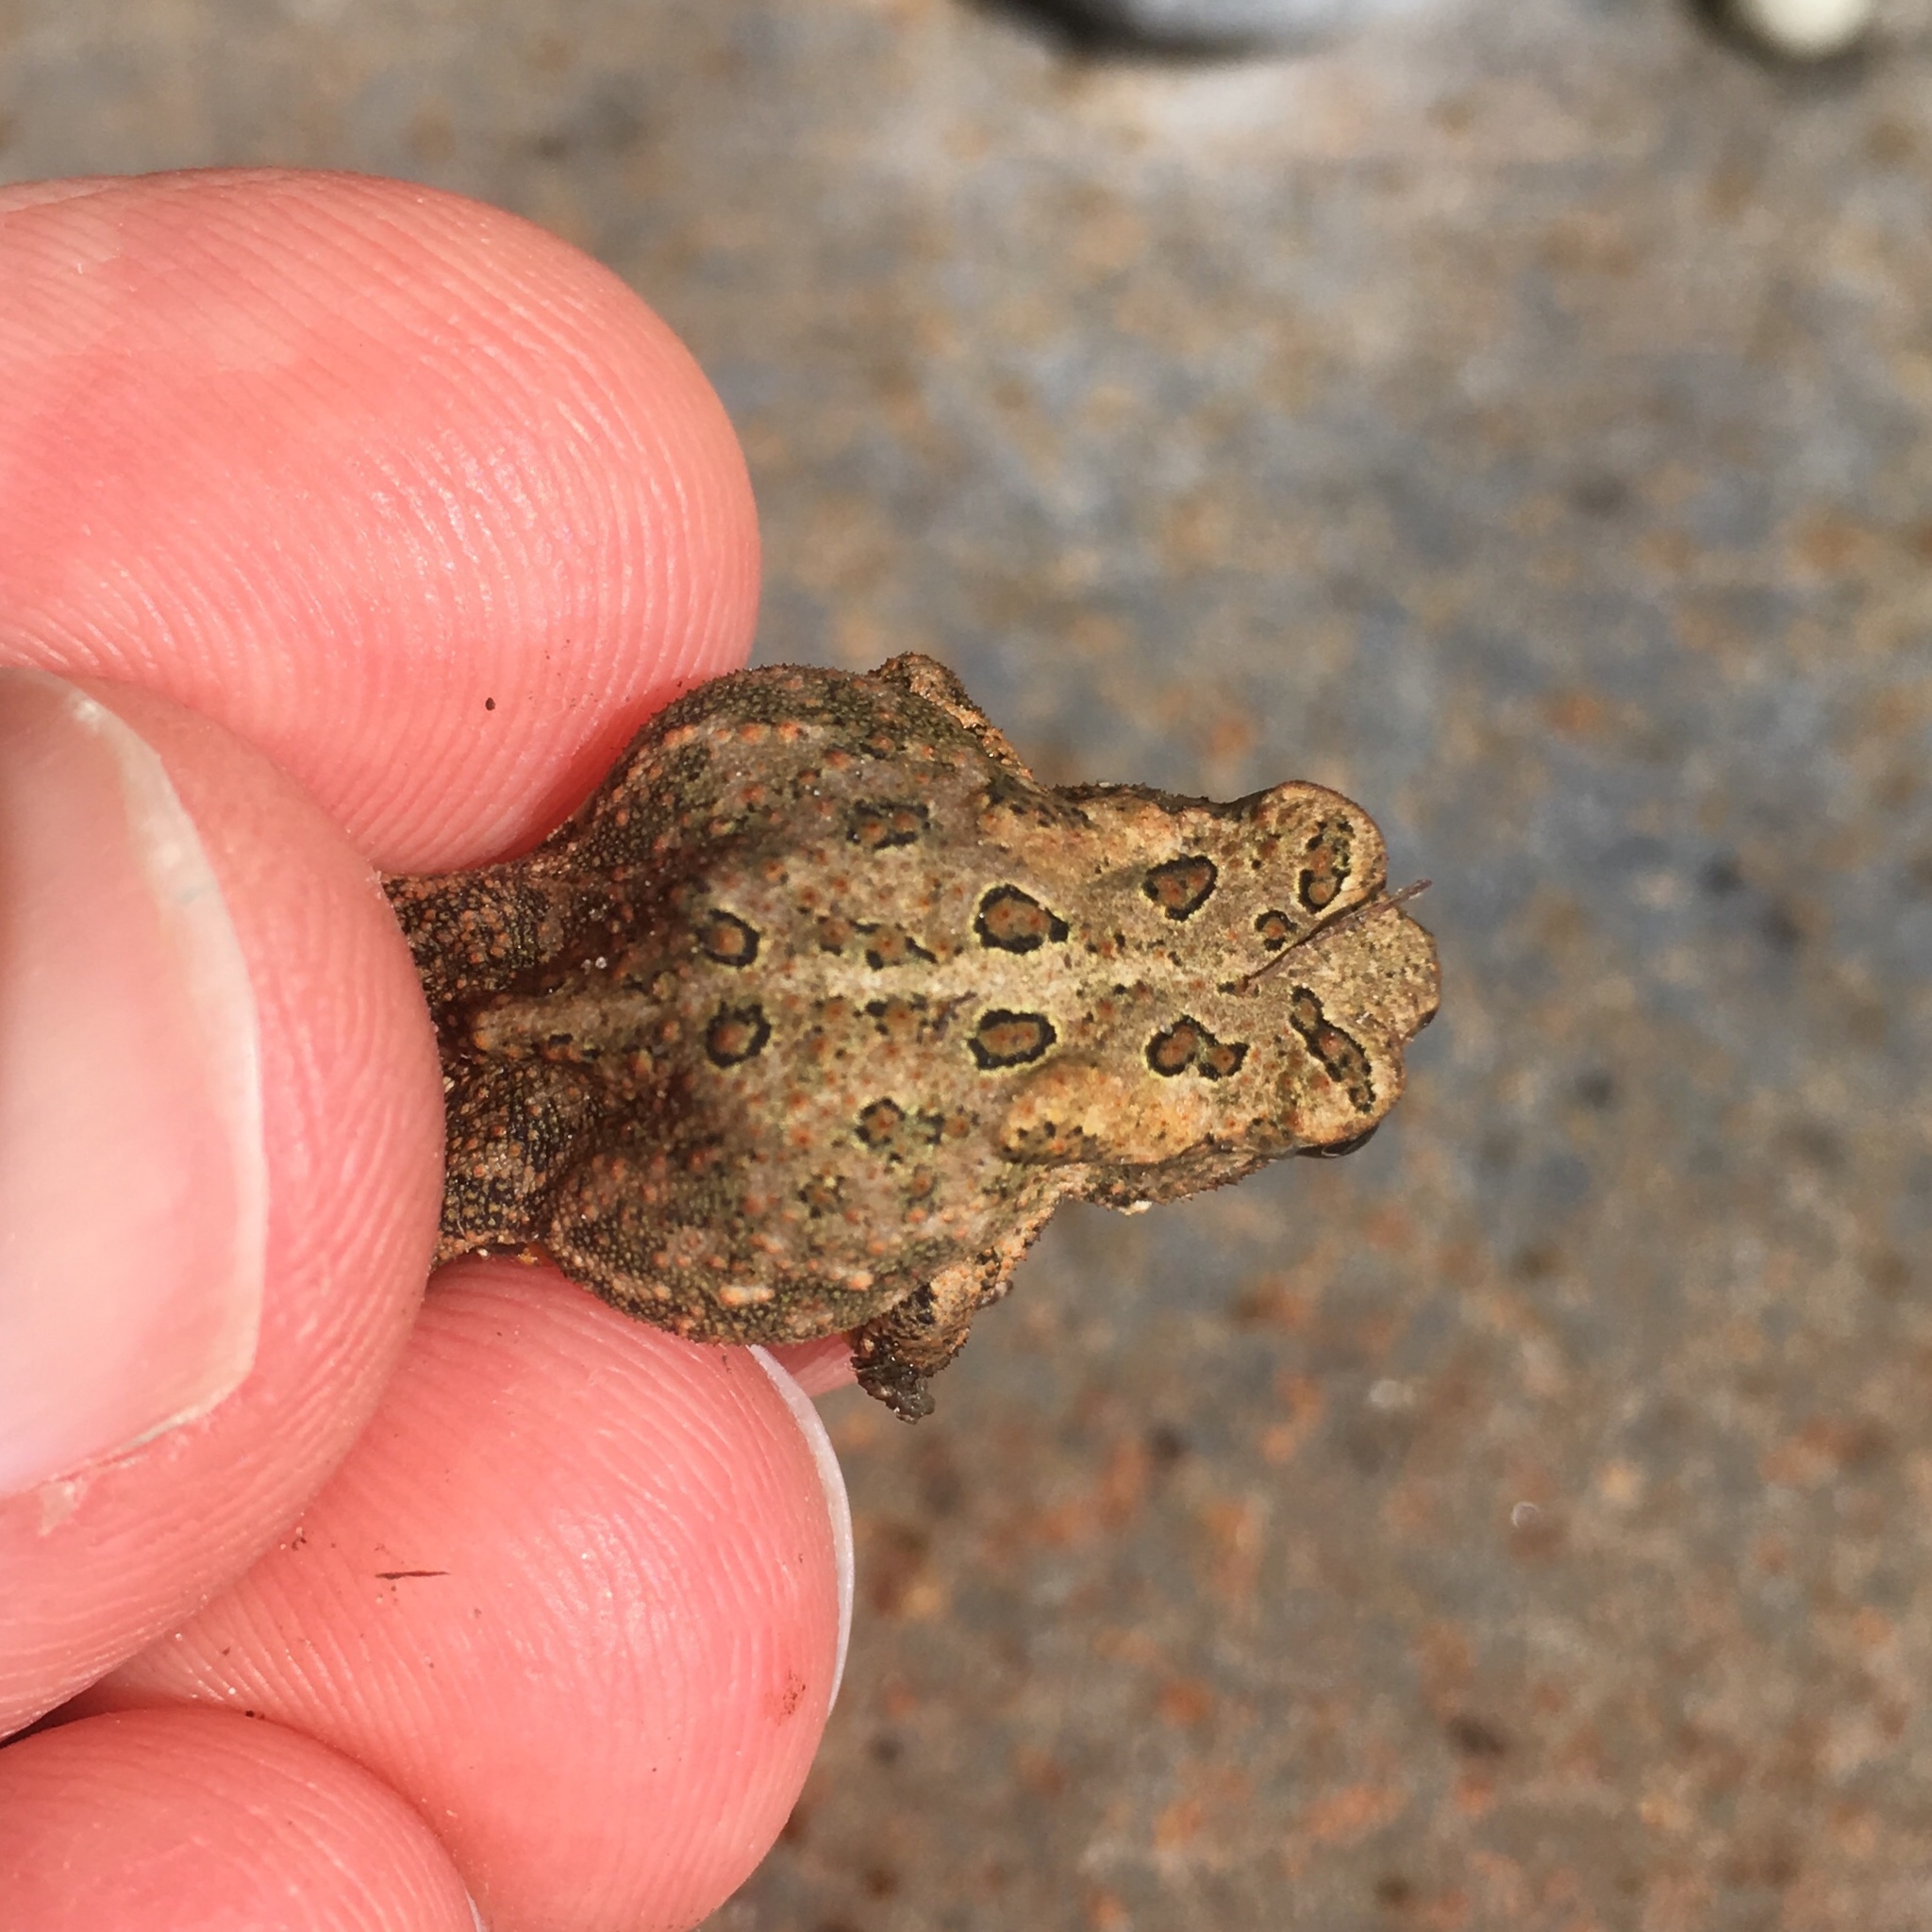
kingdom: Animalia
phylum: Chordata
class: Amphibia
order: Anura
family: Bufonidae
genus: Anaxyrus
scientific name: Anaxyrus americanus
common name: American toad
